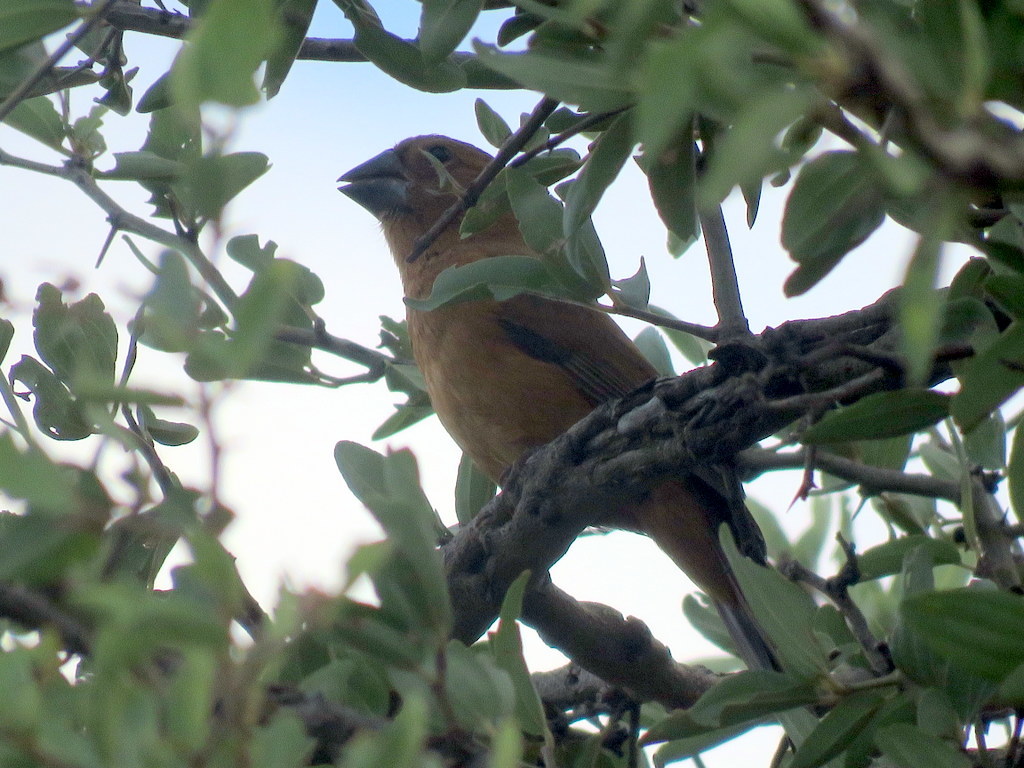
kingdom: Animalia
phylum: Chordata
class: Aves
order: Passeriformes
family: Cardinalidae
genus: Cyanoloxia
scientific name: Cyanoloxia brissonii
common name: Ultramarine grosbeak
